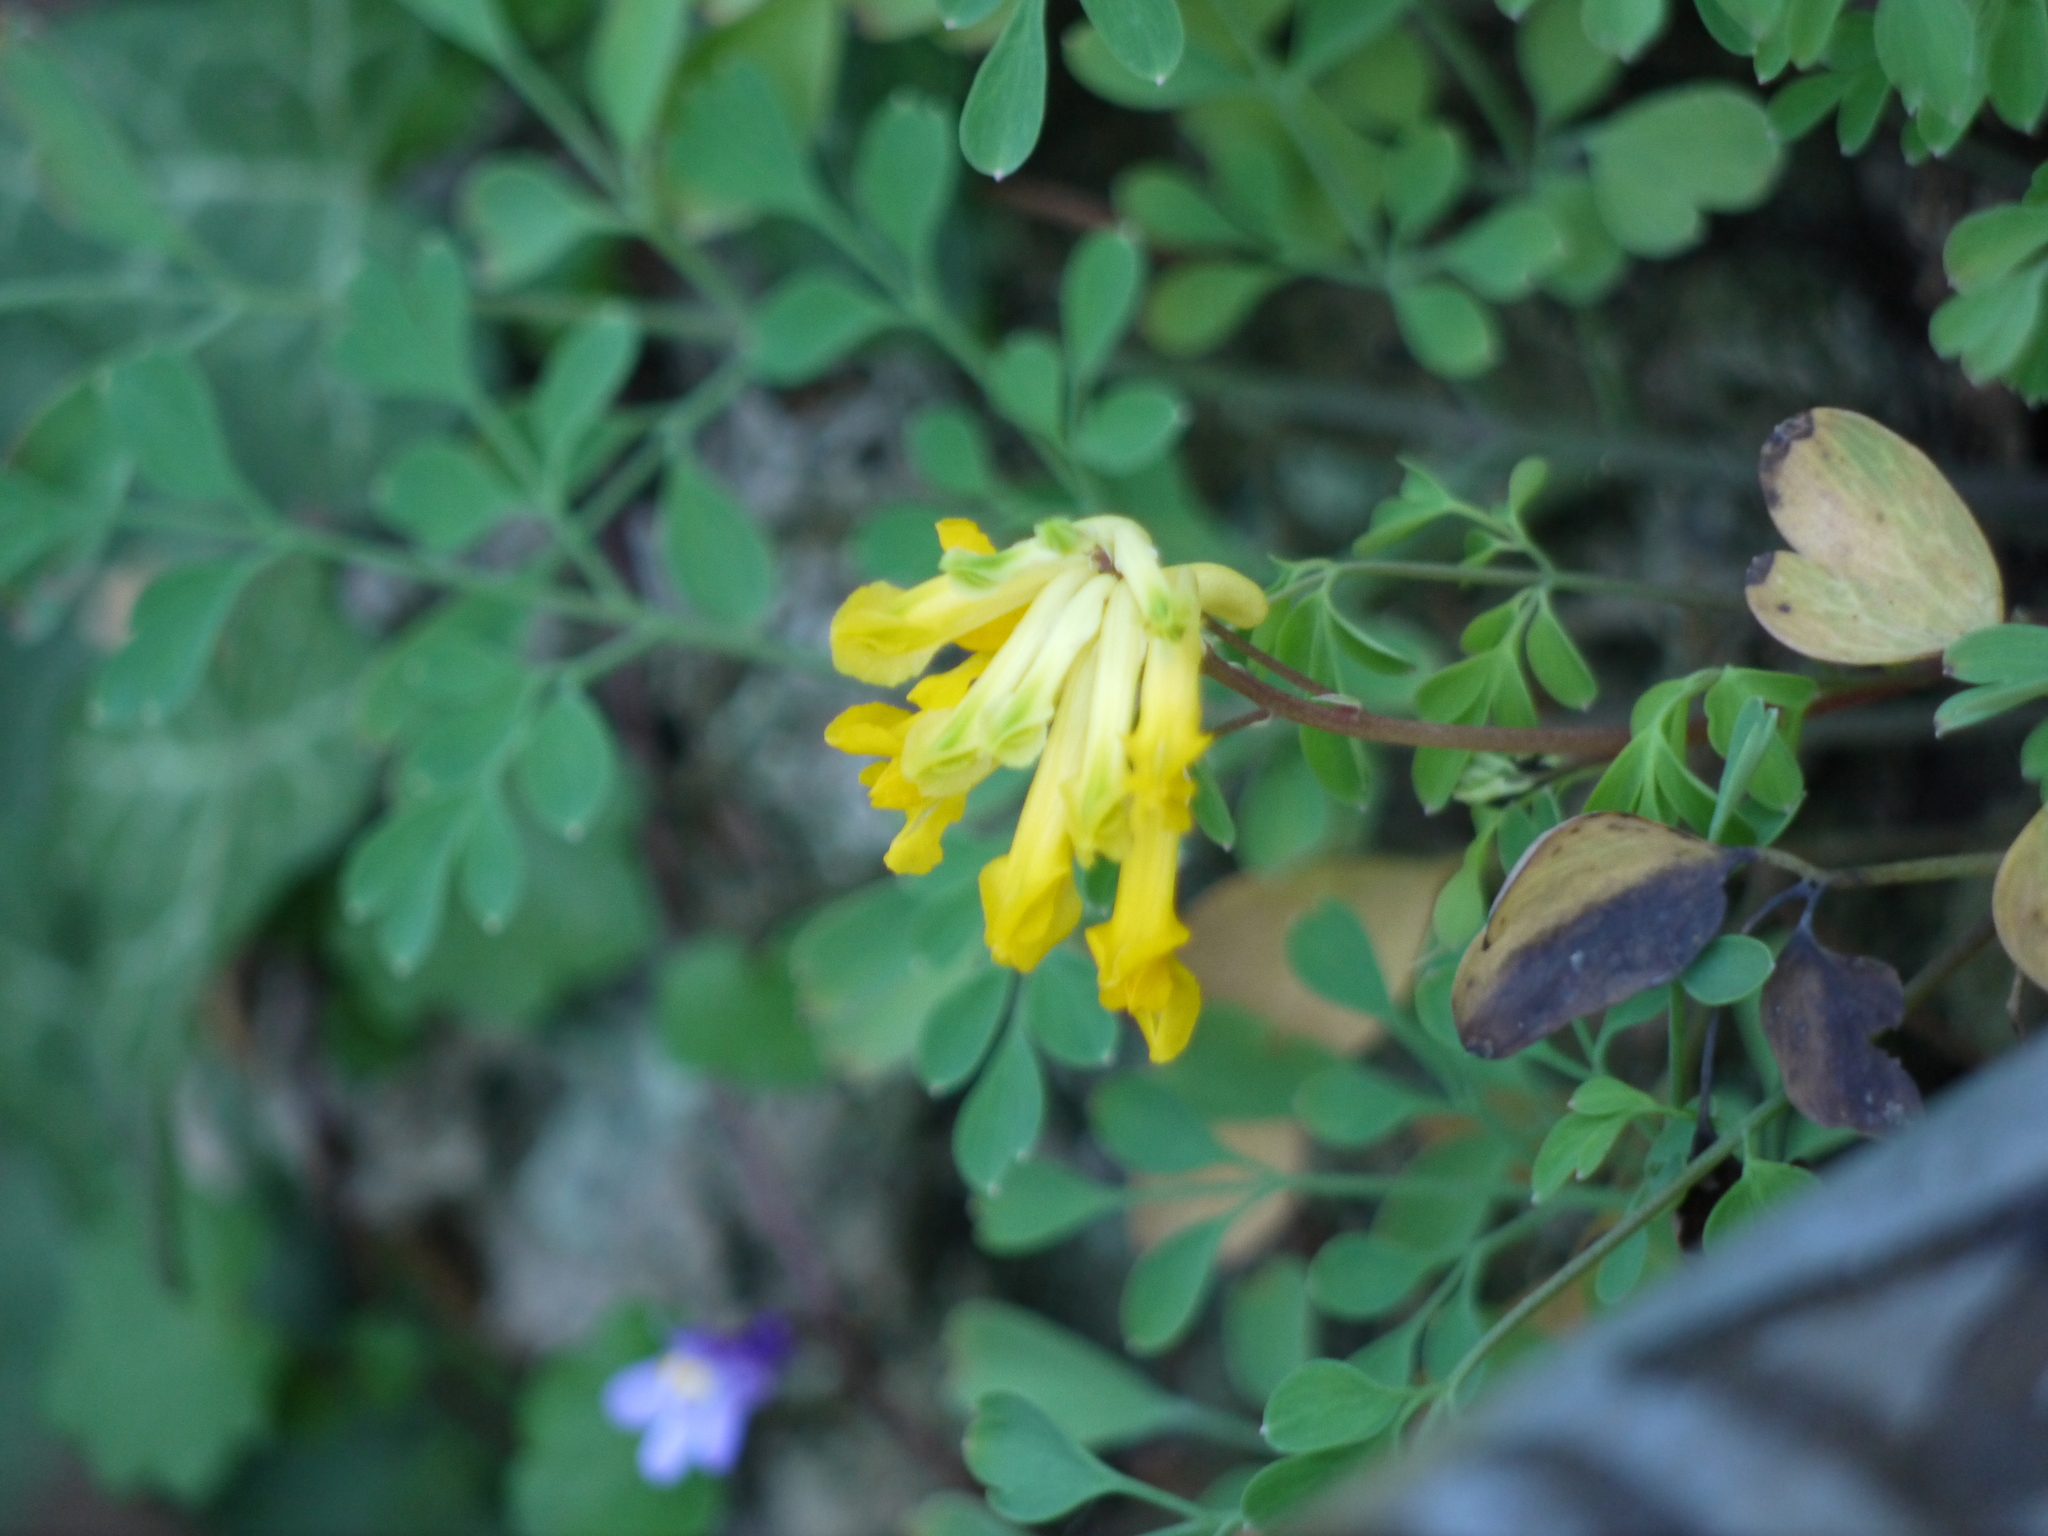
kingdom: Plantae
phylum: Tracheophyta
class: Magnoliopsida
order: Ranunculales
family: Papaveraceae
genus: Pseudofumaria
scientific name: Pseudofumaria lutea
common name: Yellow corydalis
